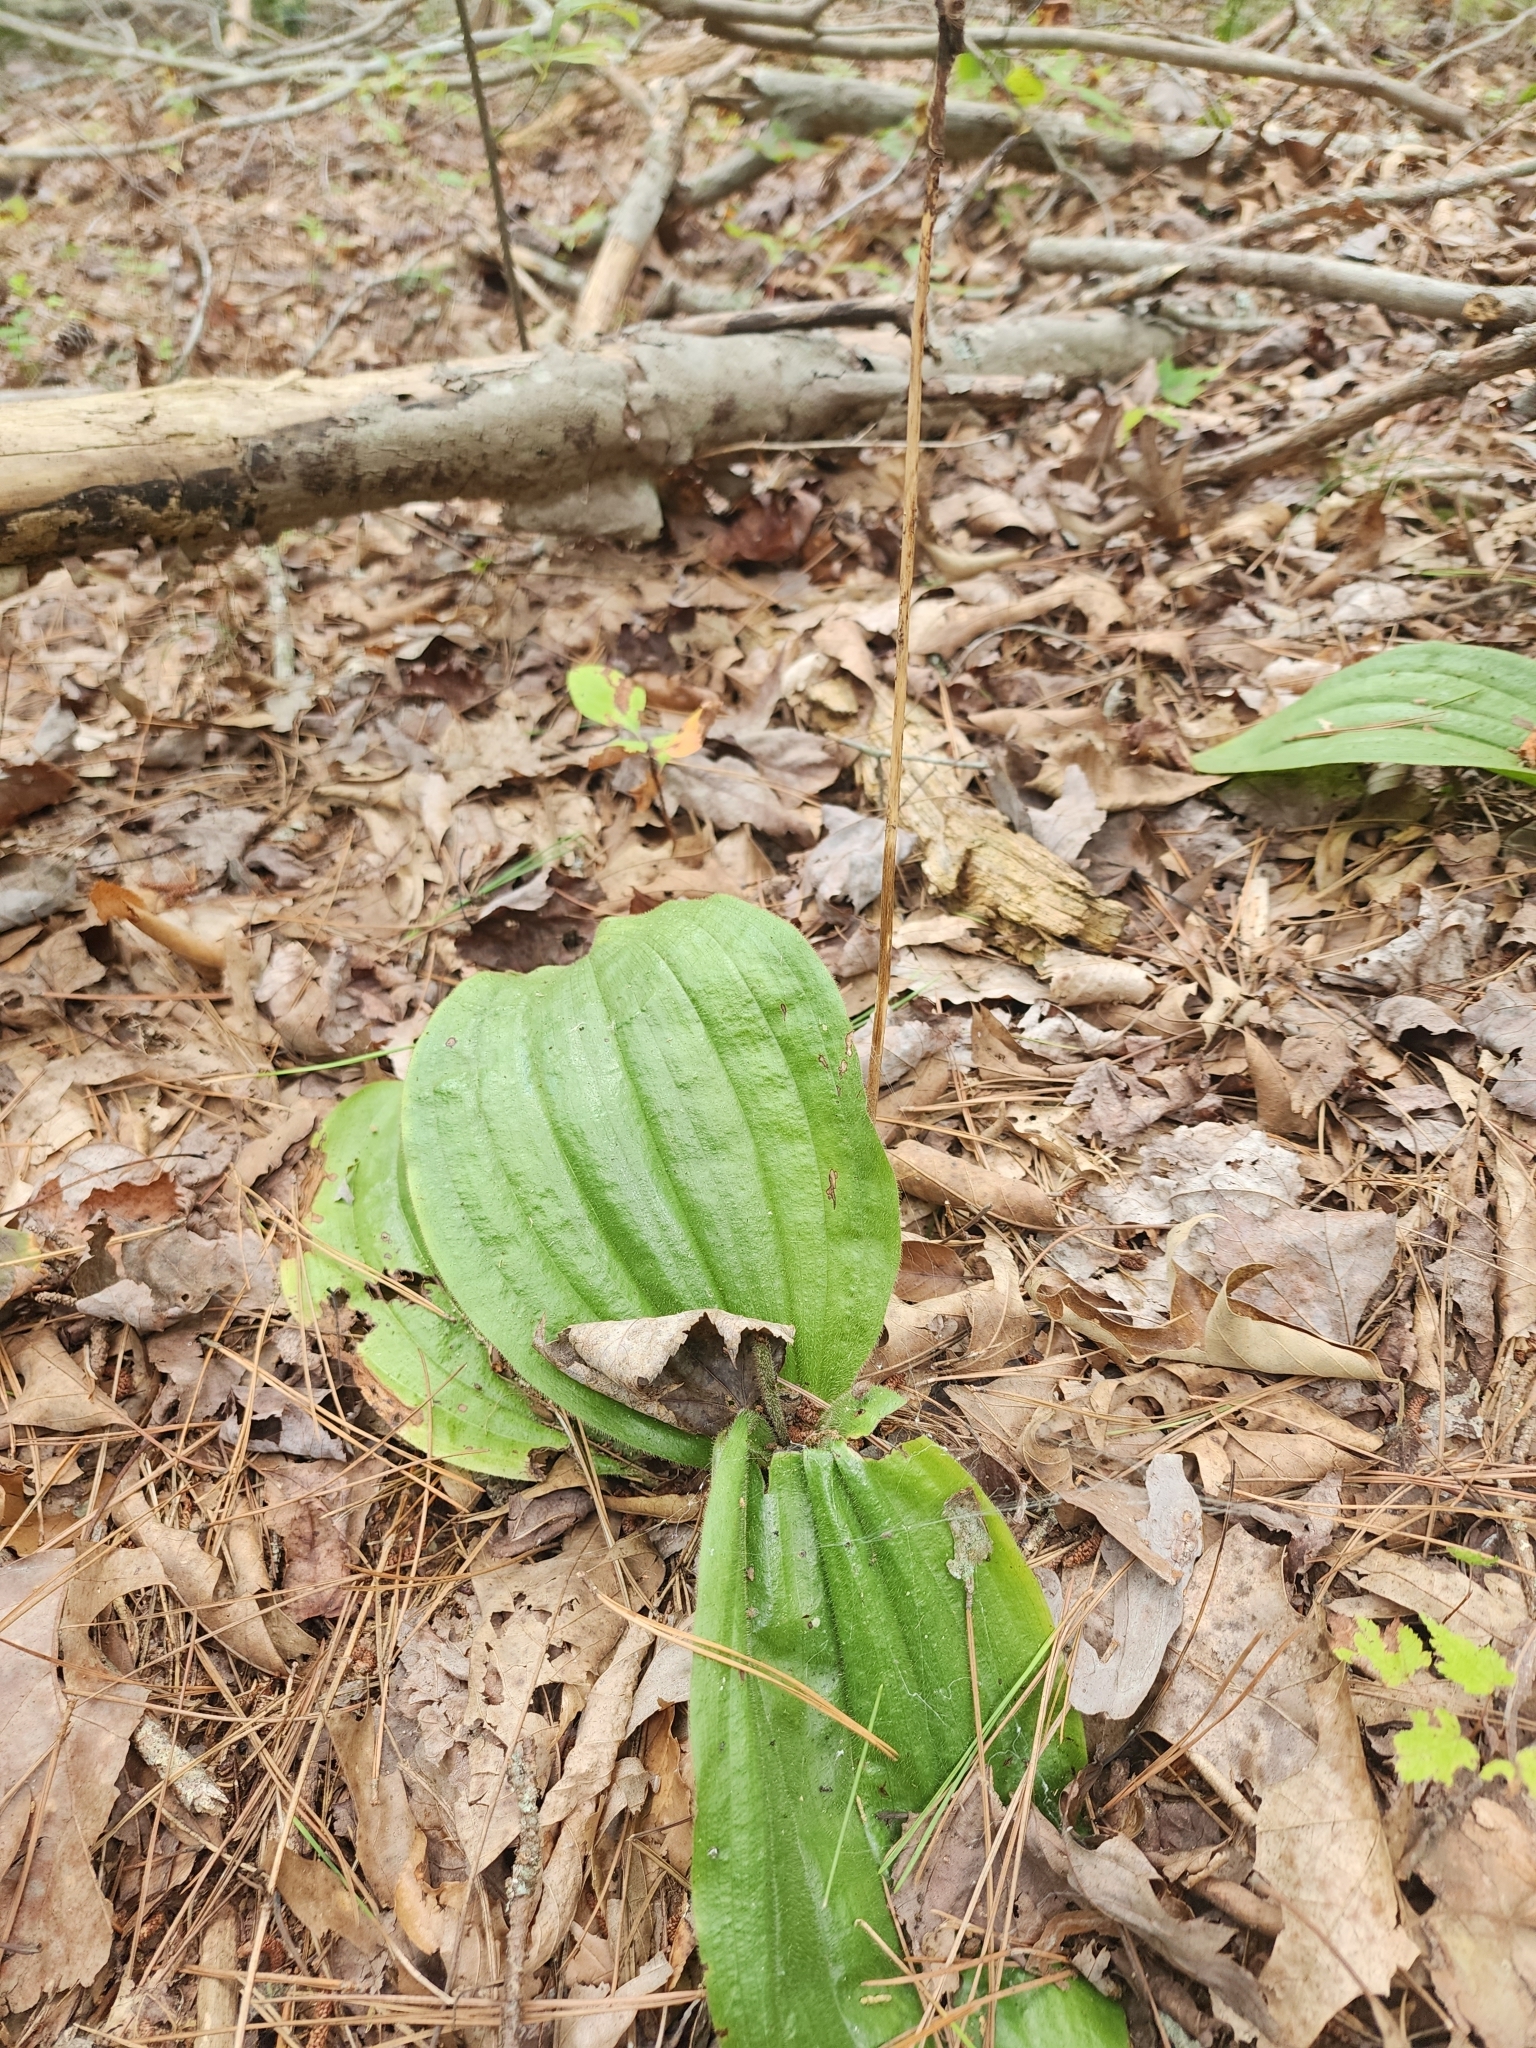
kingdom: Plantae
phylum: Tracheophyta
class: Liliopsida
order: Asparagales
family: Orchidaceae
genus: Cypripedium
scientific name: Cypripedium acaule
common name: Pink lady's-slipper
